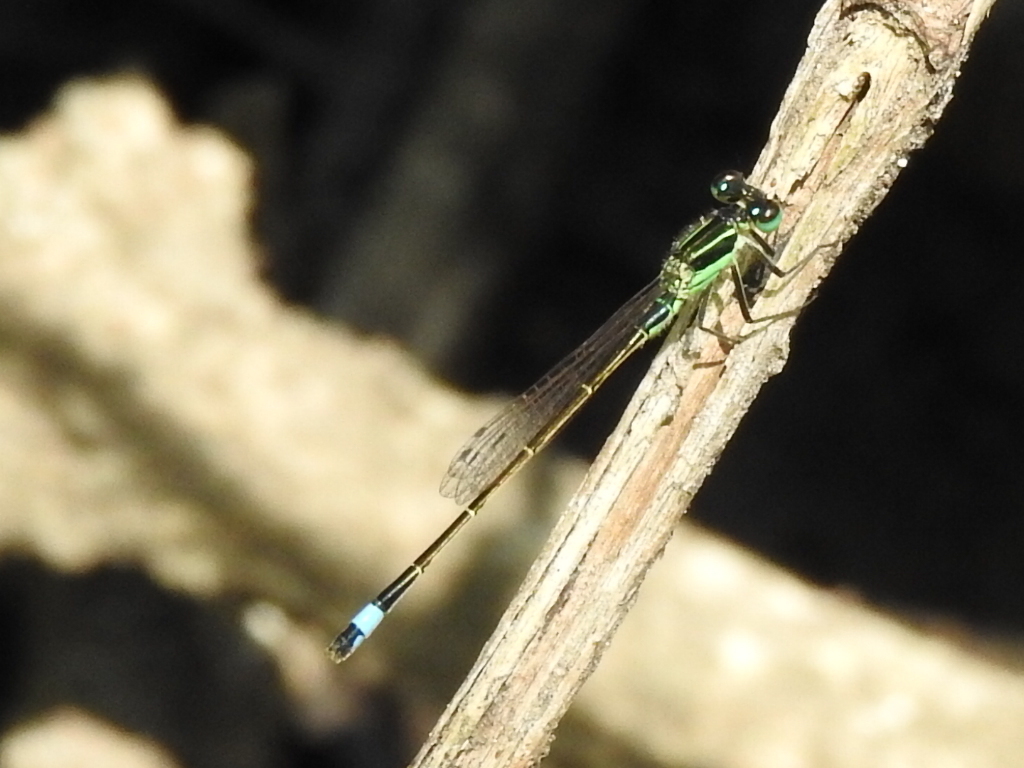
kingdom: Animalia
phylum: Arthropoda
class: Insecta
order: Odonata
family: Coenagrionidae
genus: Ischnura
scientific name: Ischnura ramburii
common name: Rambur's forktail
